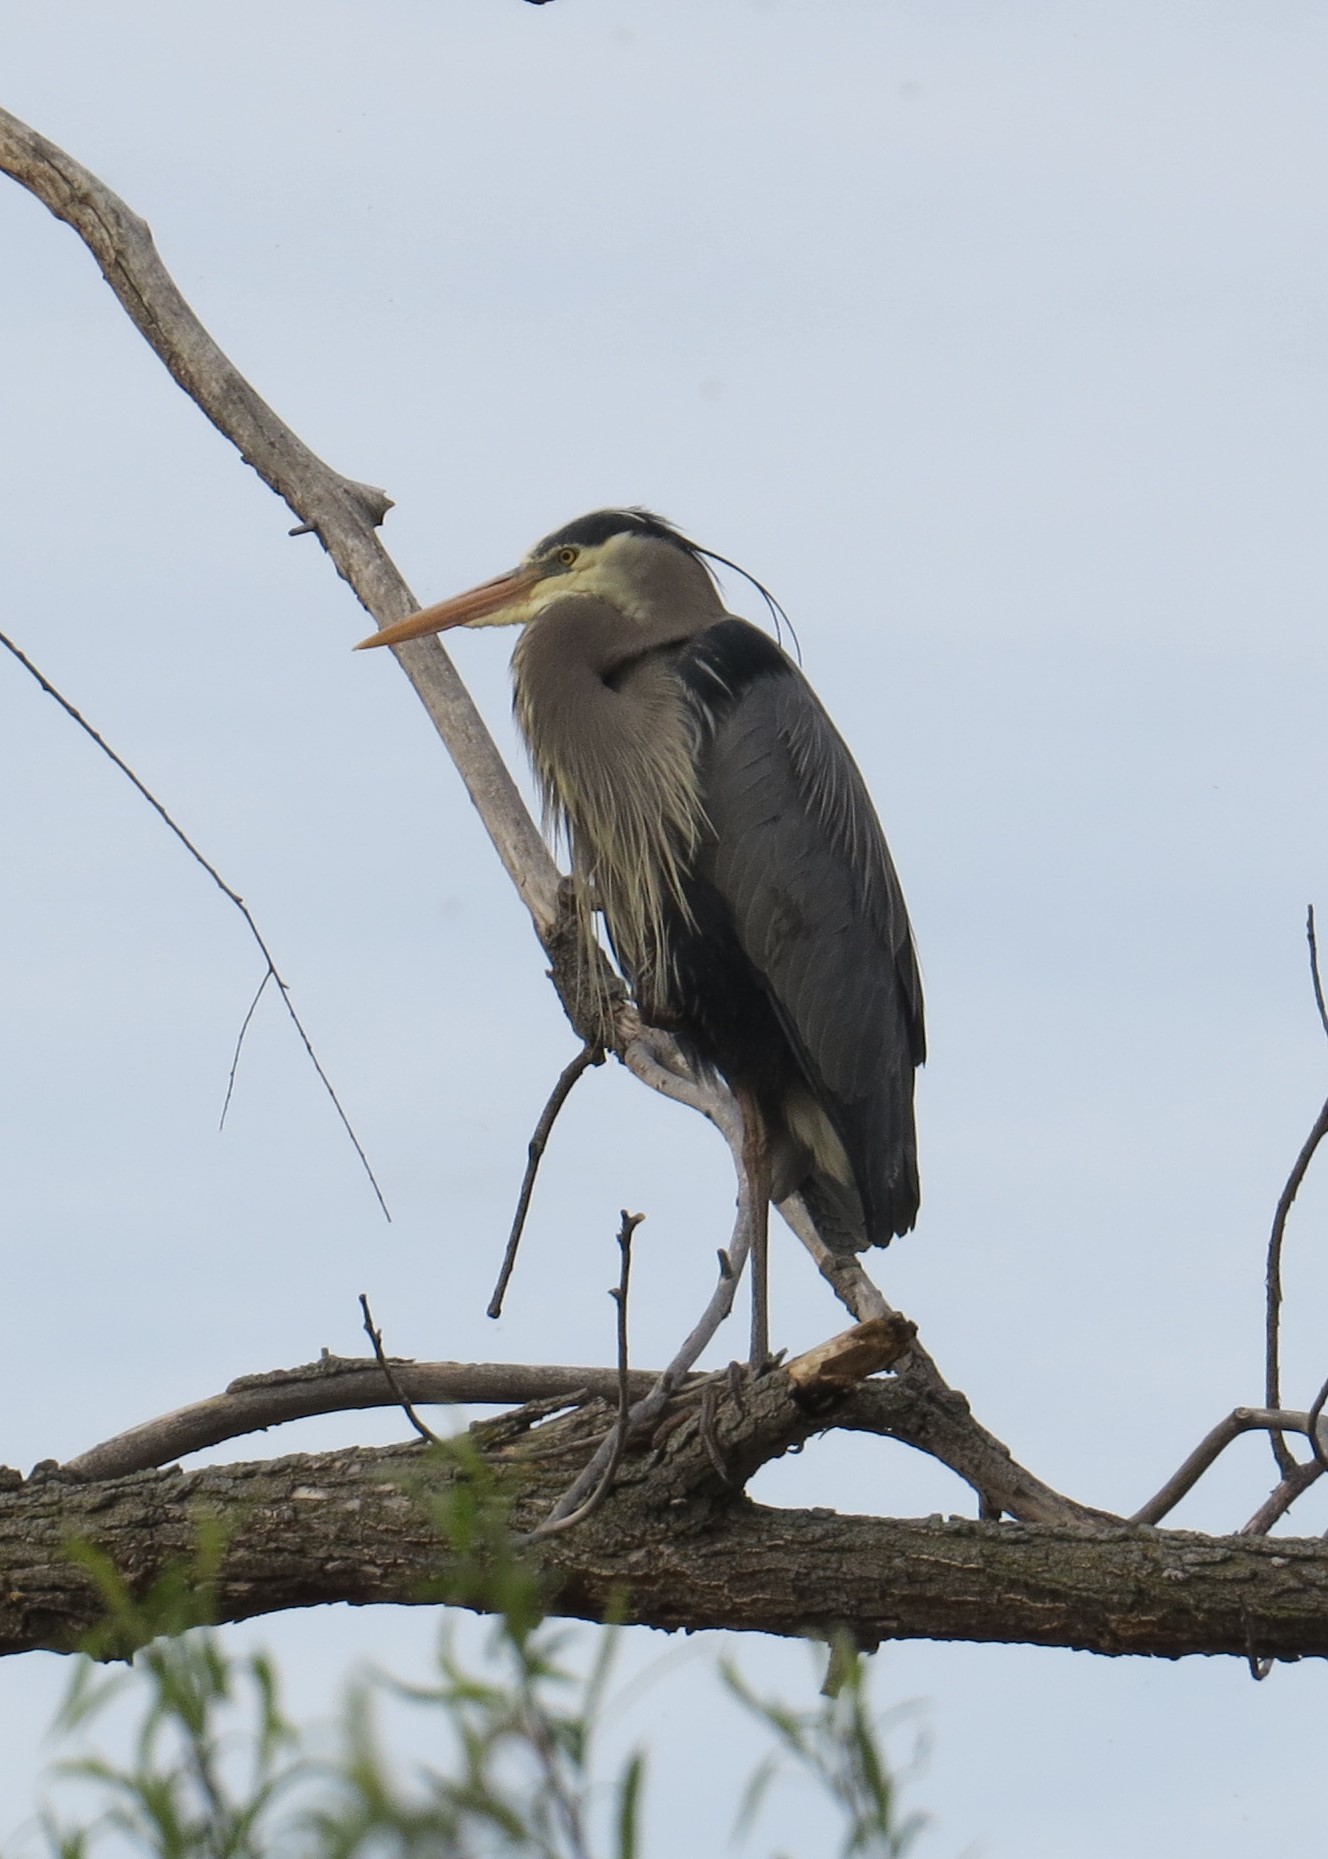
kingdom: Animalia
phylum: Chordata
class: Aves
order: Pelecaniformes
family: Ardeidae
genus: Ardea
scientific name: Ardea herodias
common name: Great blue heron
